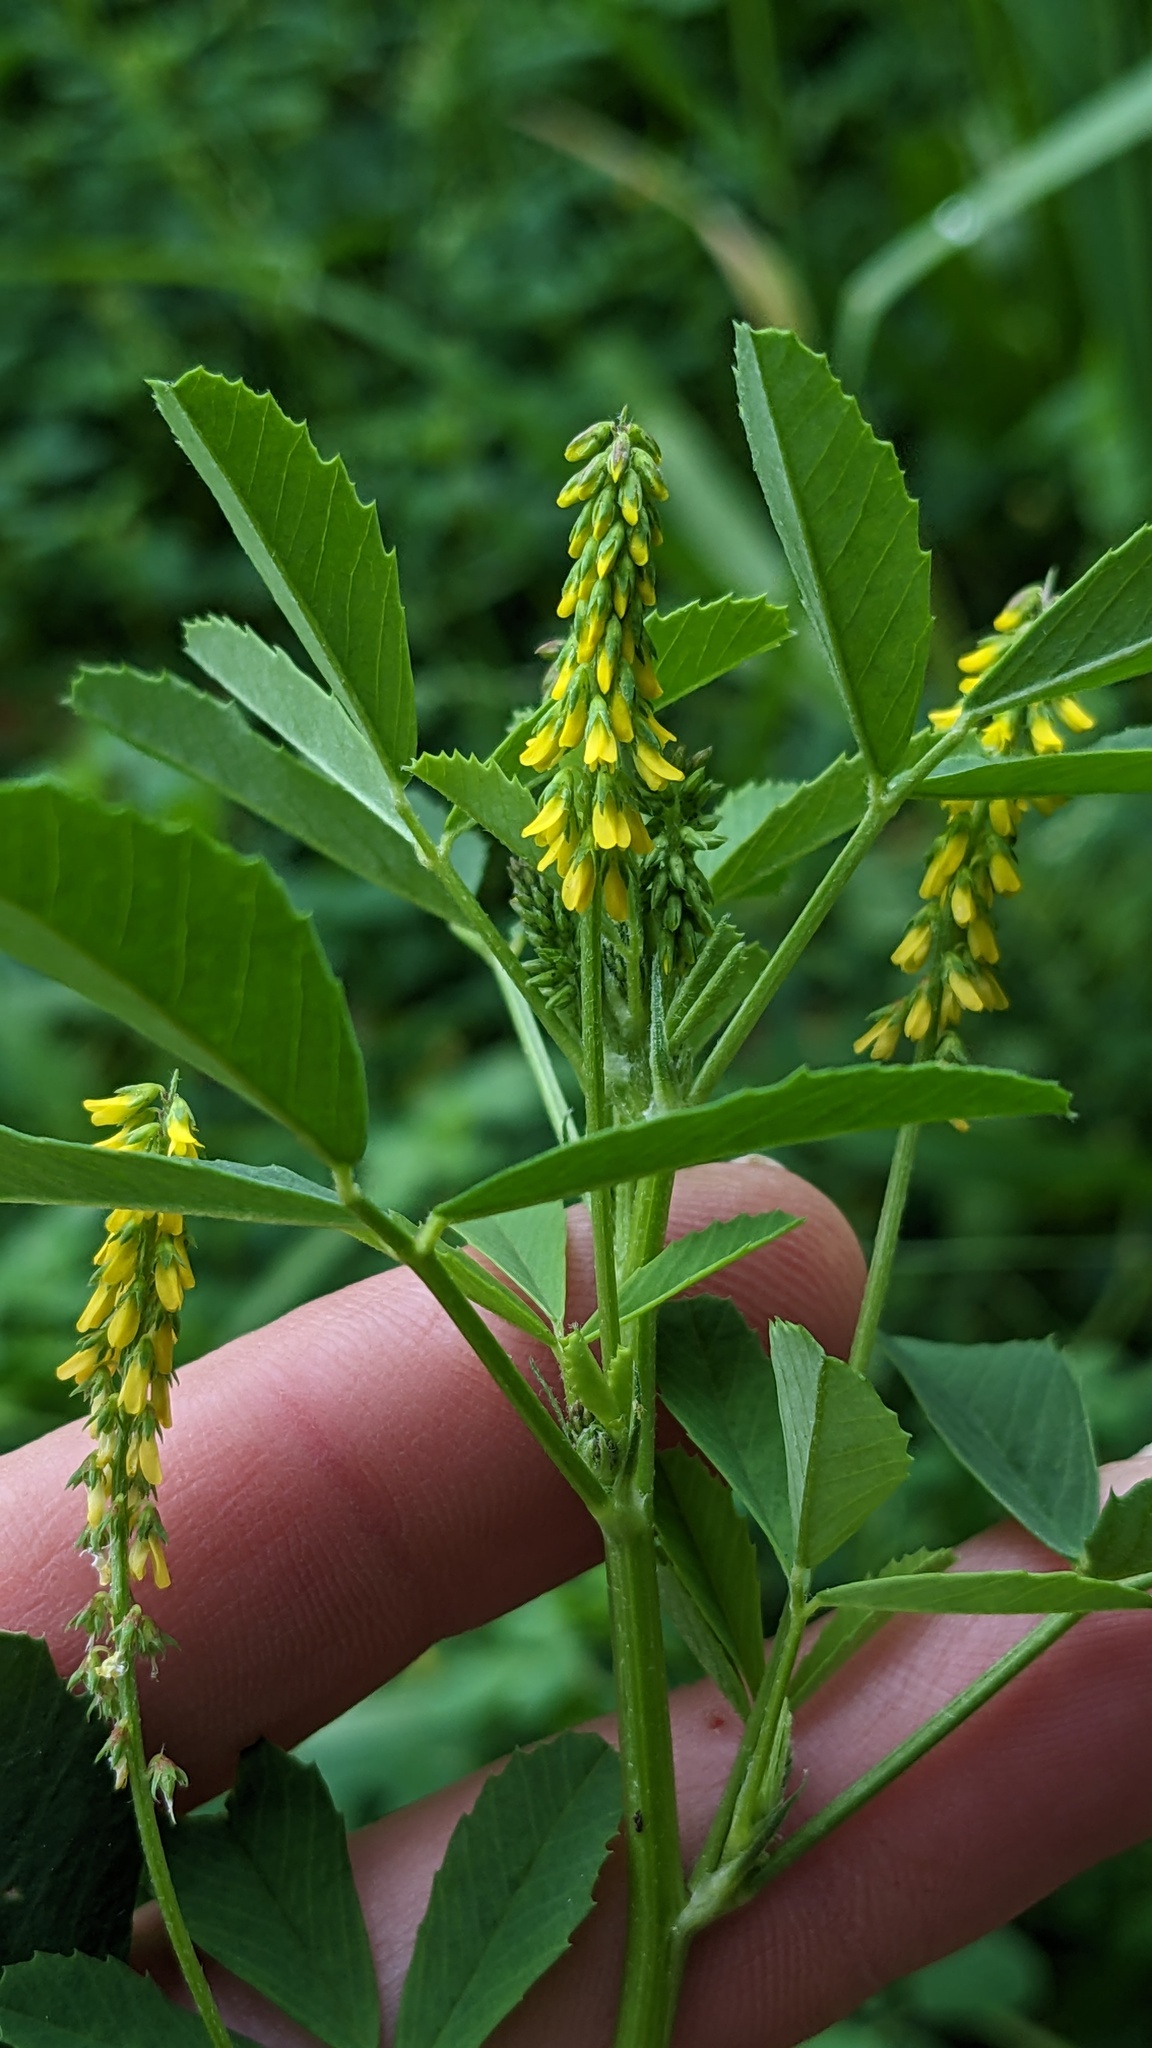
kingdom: Plantae
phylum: Tracheophyta
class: Magnoliopsida
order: Fabales
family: Fabaceae
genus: Melilotus
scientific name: Melilotus indicus
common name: Small melilot
